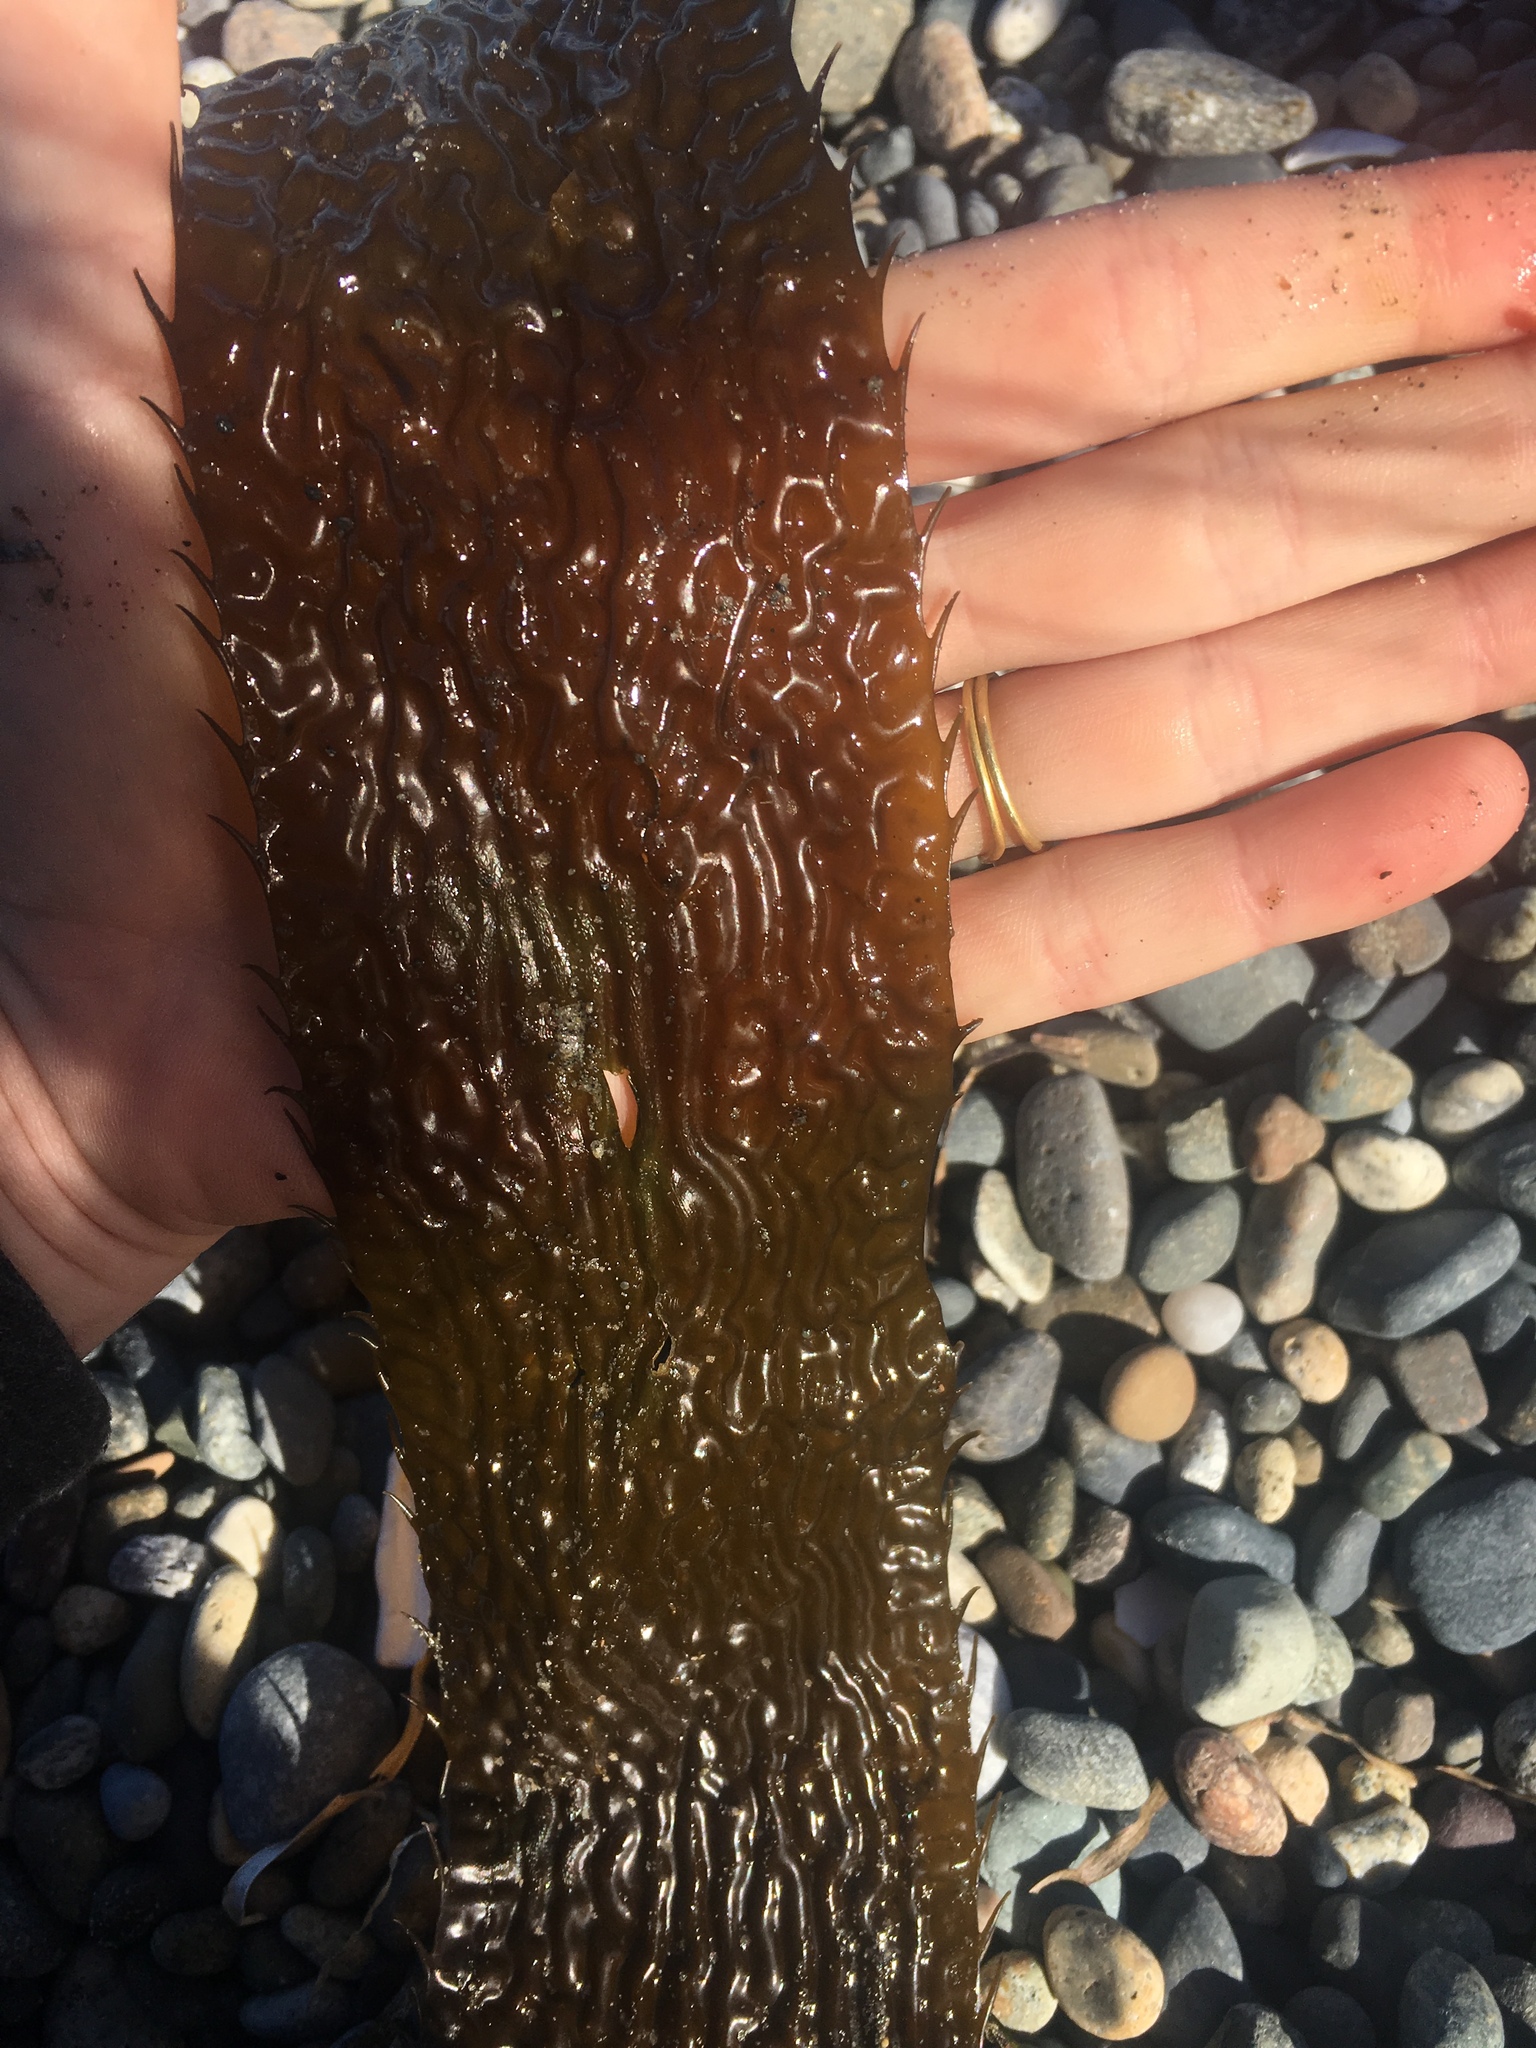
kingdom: Chromista
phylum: Ochrophyta
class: Phaeophyceae
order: Laminariales
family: Laminariaceae
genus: Macrocystis
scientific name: Macrocystis pyrifera
